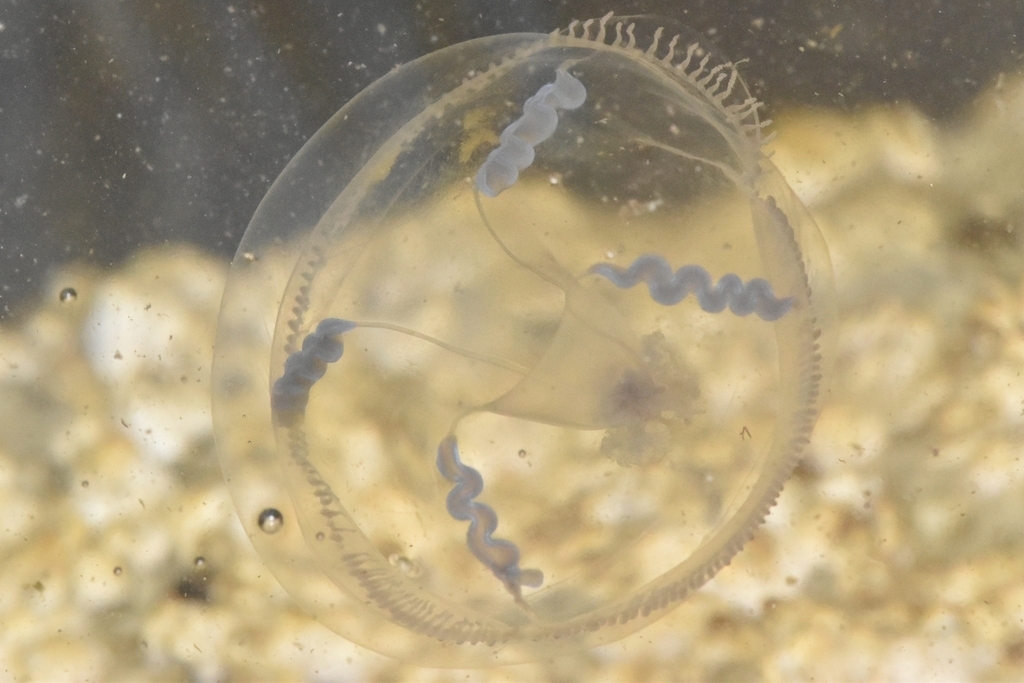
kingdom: Animalia
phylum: Cnidaria
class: Hydrozoa
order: Leptothecata
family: Eirenidae
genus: Eutonina
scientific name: Eutonina indicans
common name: Umbrella jellyfish
